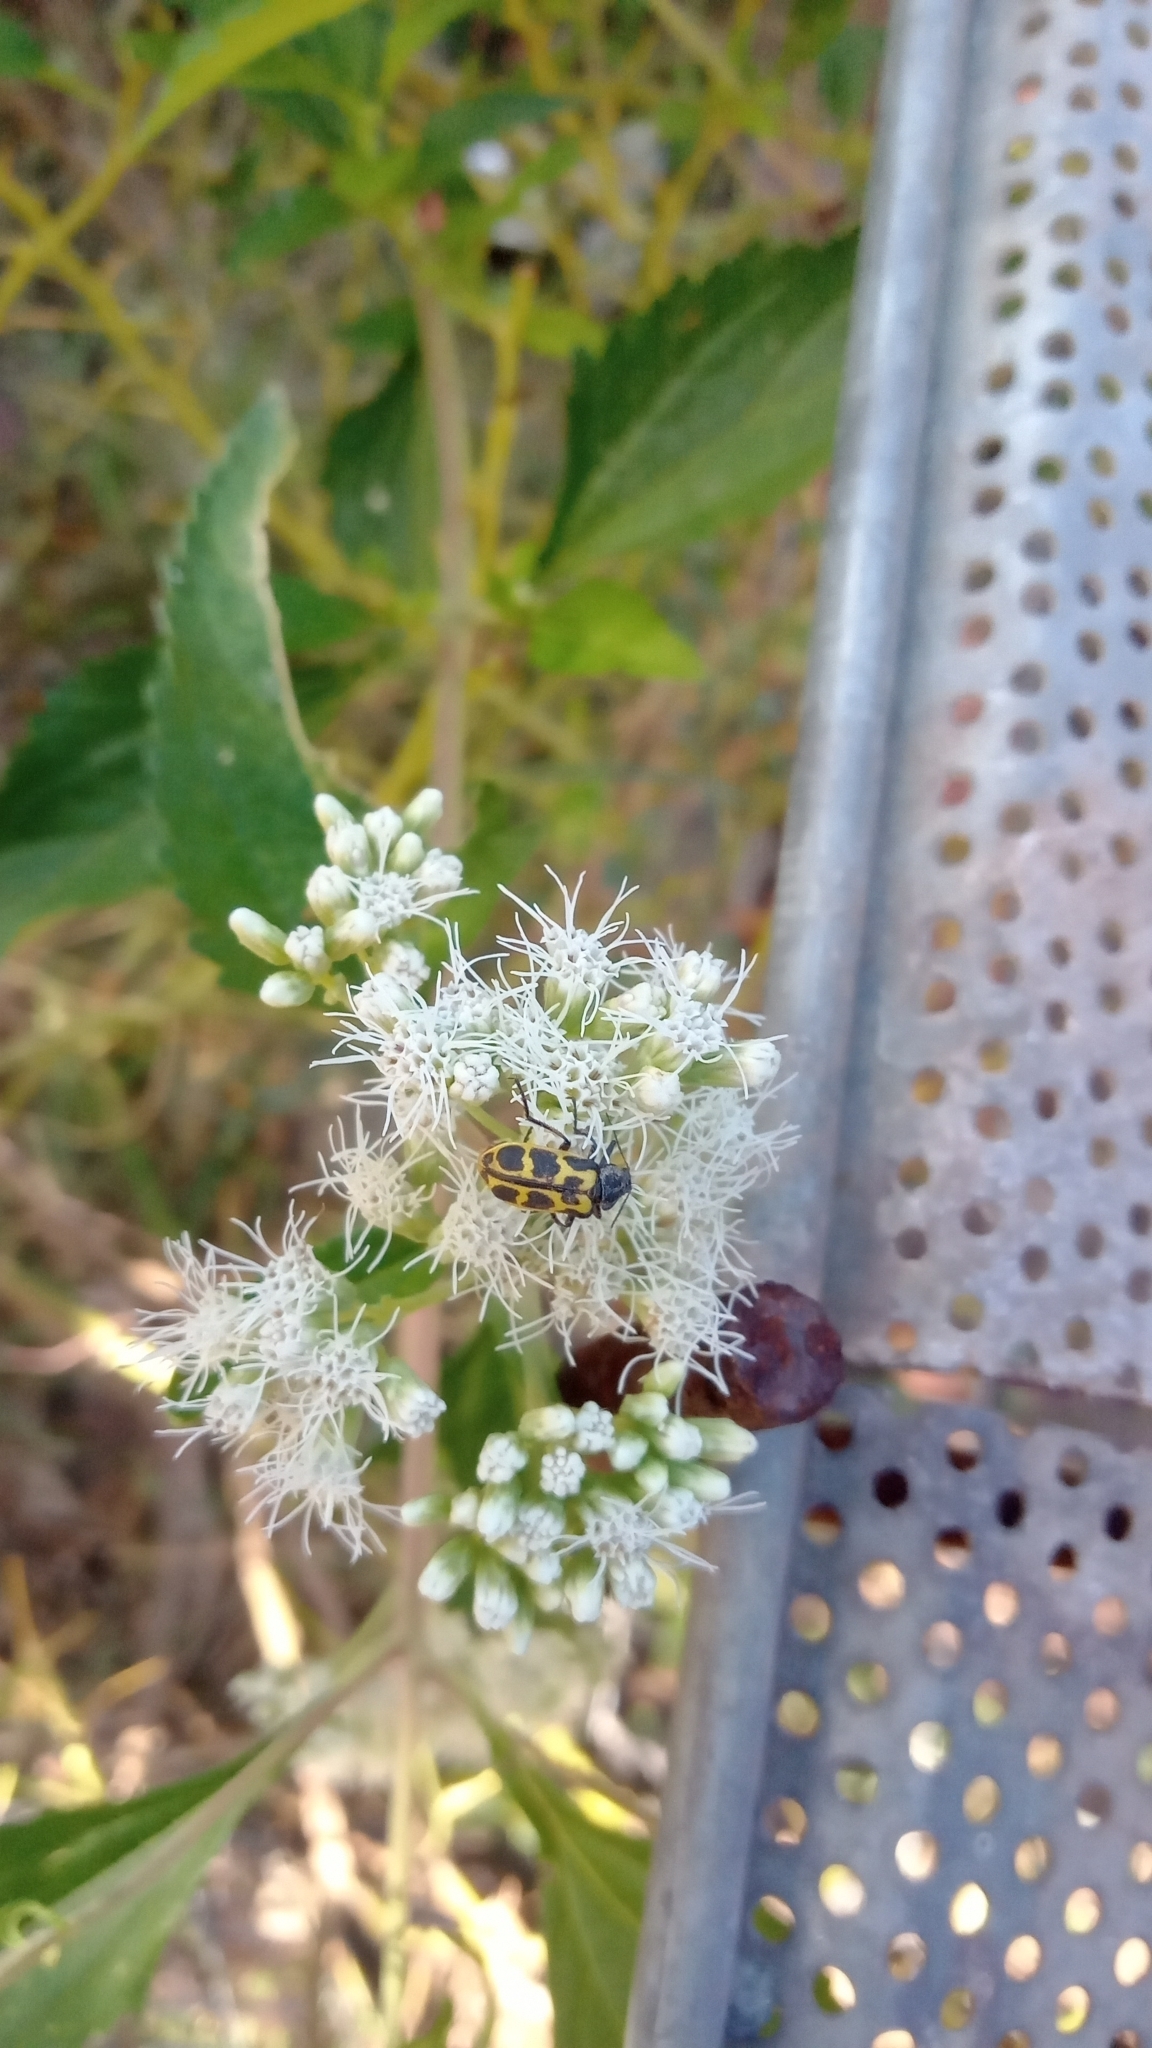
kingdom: Animalia
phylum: Arthropoda
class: Insecta
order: Coleoptera
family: Melyridae
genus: Astylus
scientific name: Astylus atromaculatus
